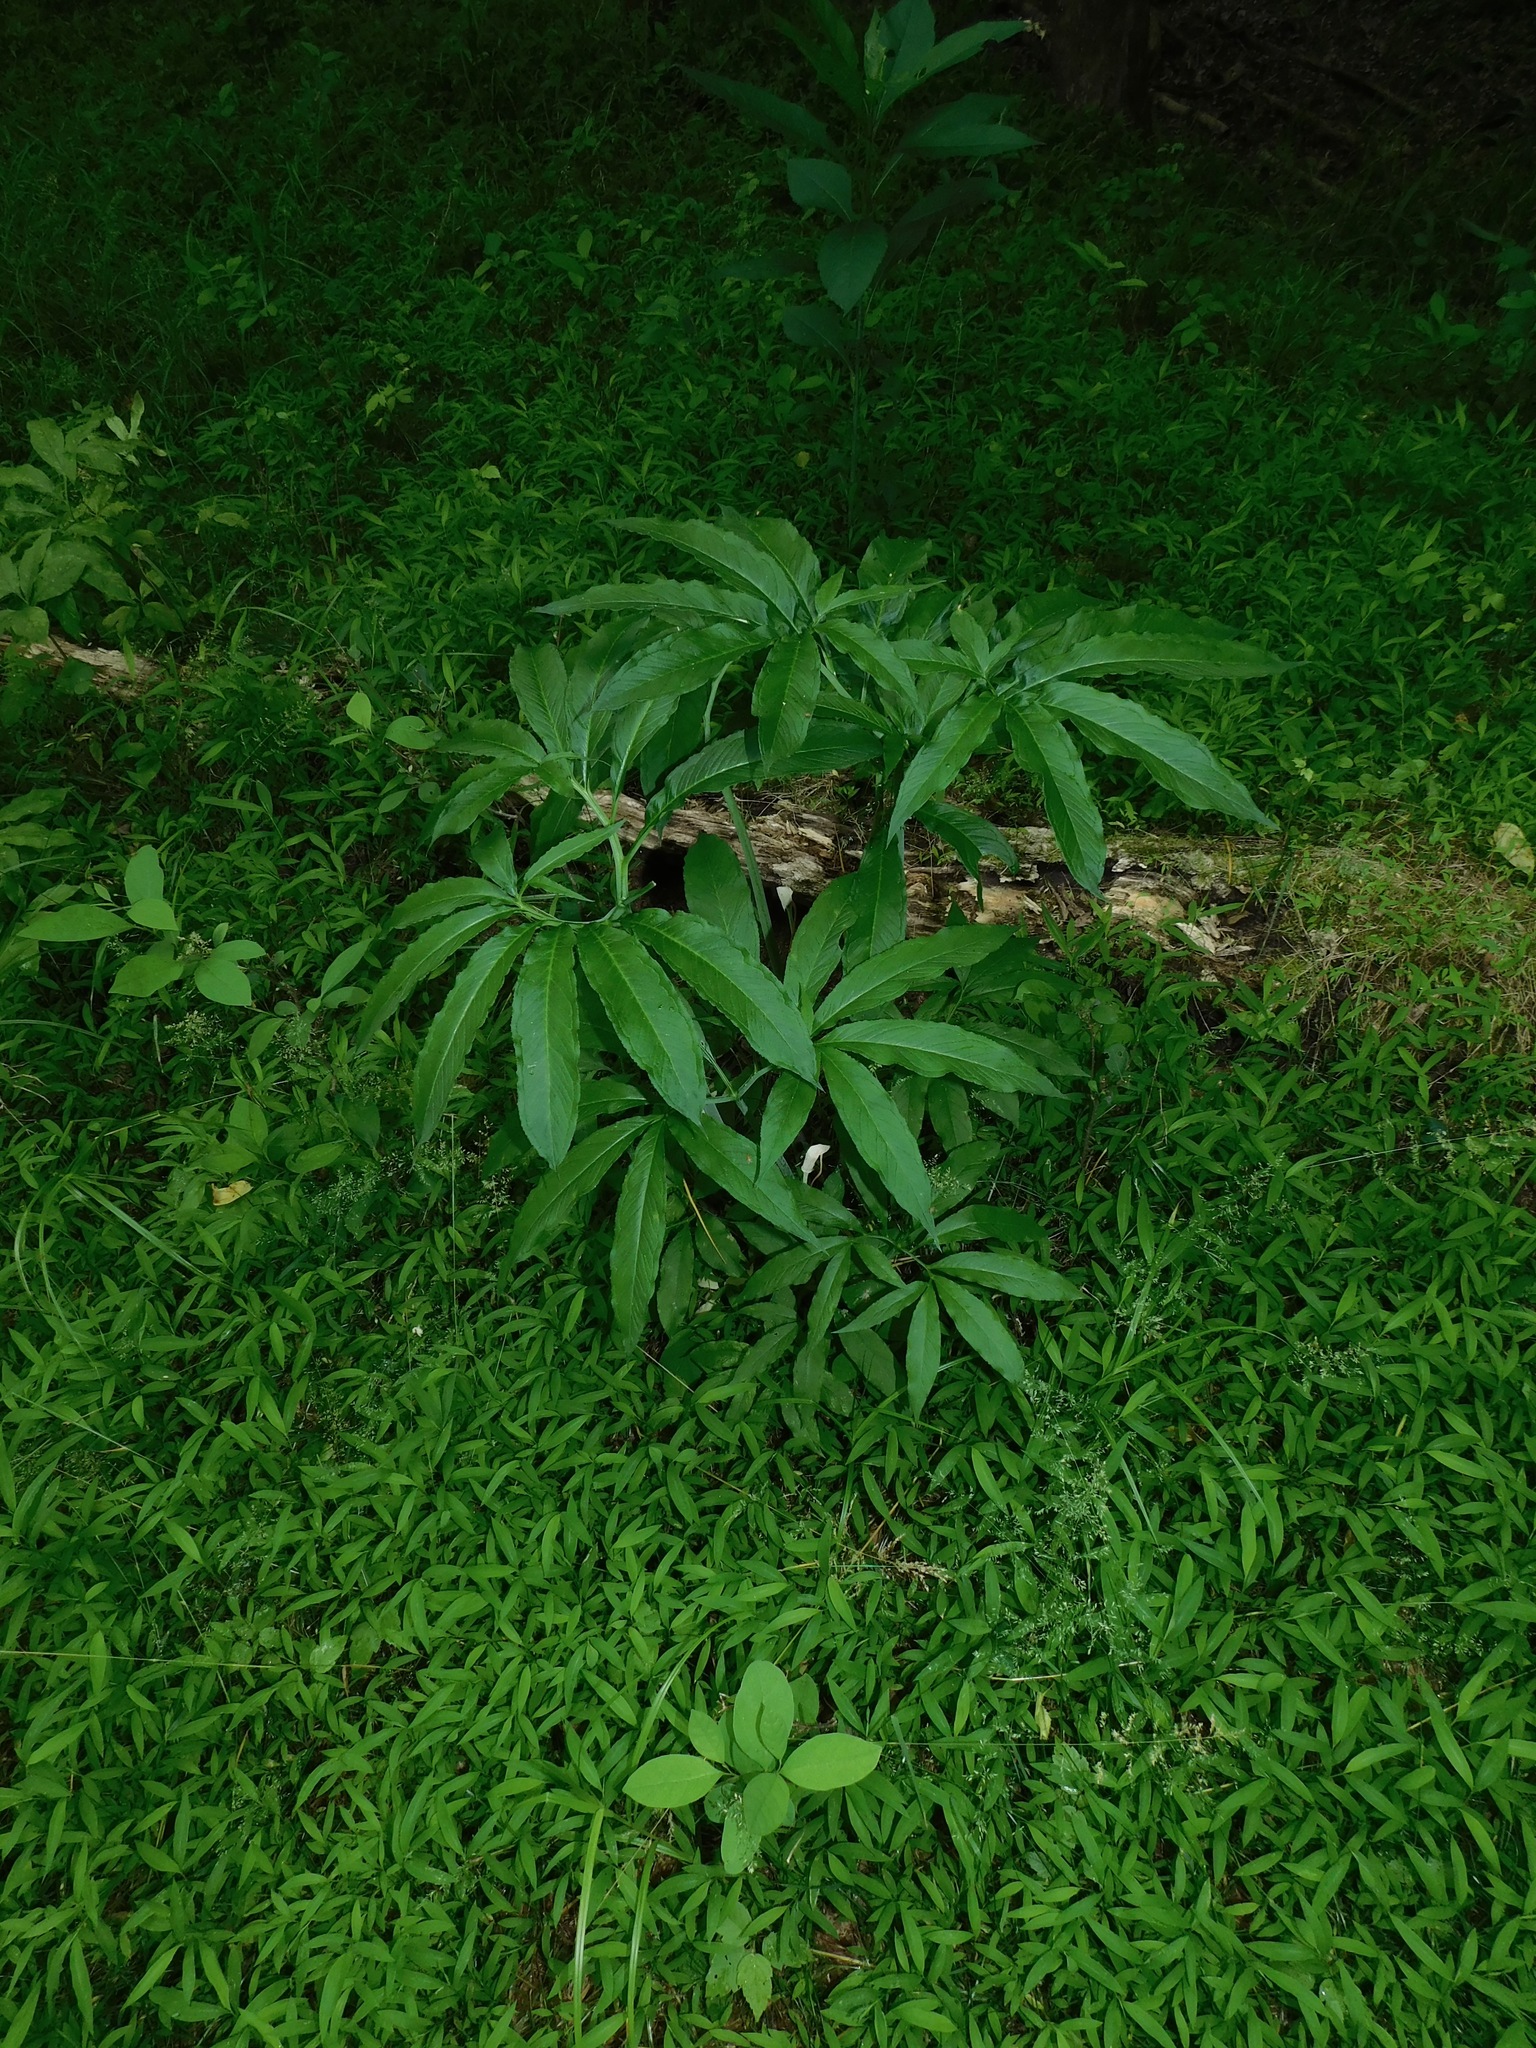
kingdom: Plantae
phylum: Tracheophyta
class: Liliopsida
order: Alismatales
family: Araceae
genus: Arisaema
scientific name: Arisaema dracontium
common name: Dragon-arum
